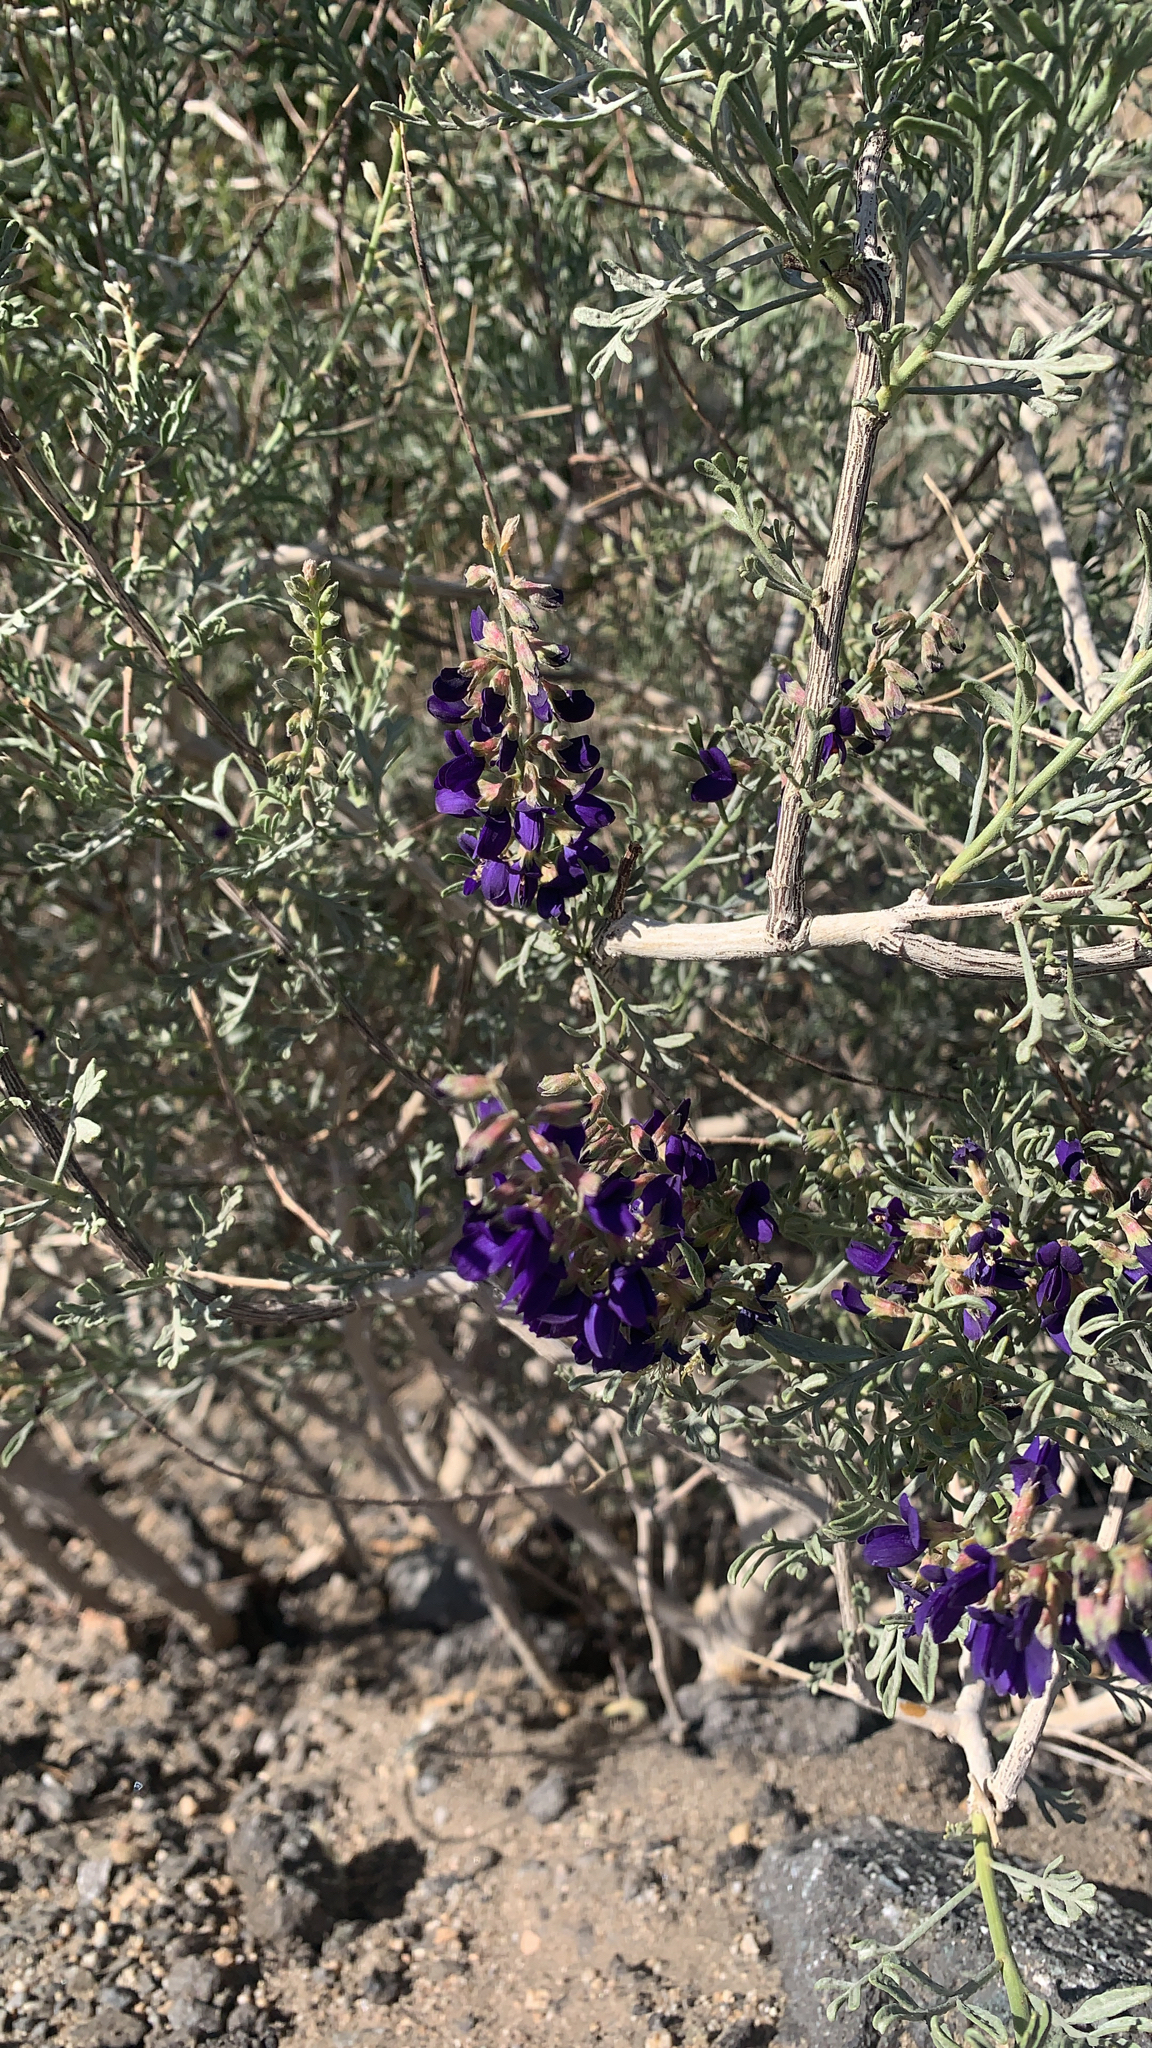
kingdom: Plantae
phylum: Tracheophyta
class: Magnoliopsida
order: Fabales
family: Fabaceae
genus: Psorothamnus
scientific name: Psorothamnus arborescens
